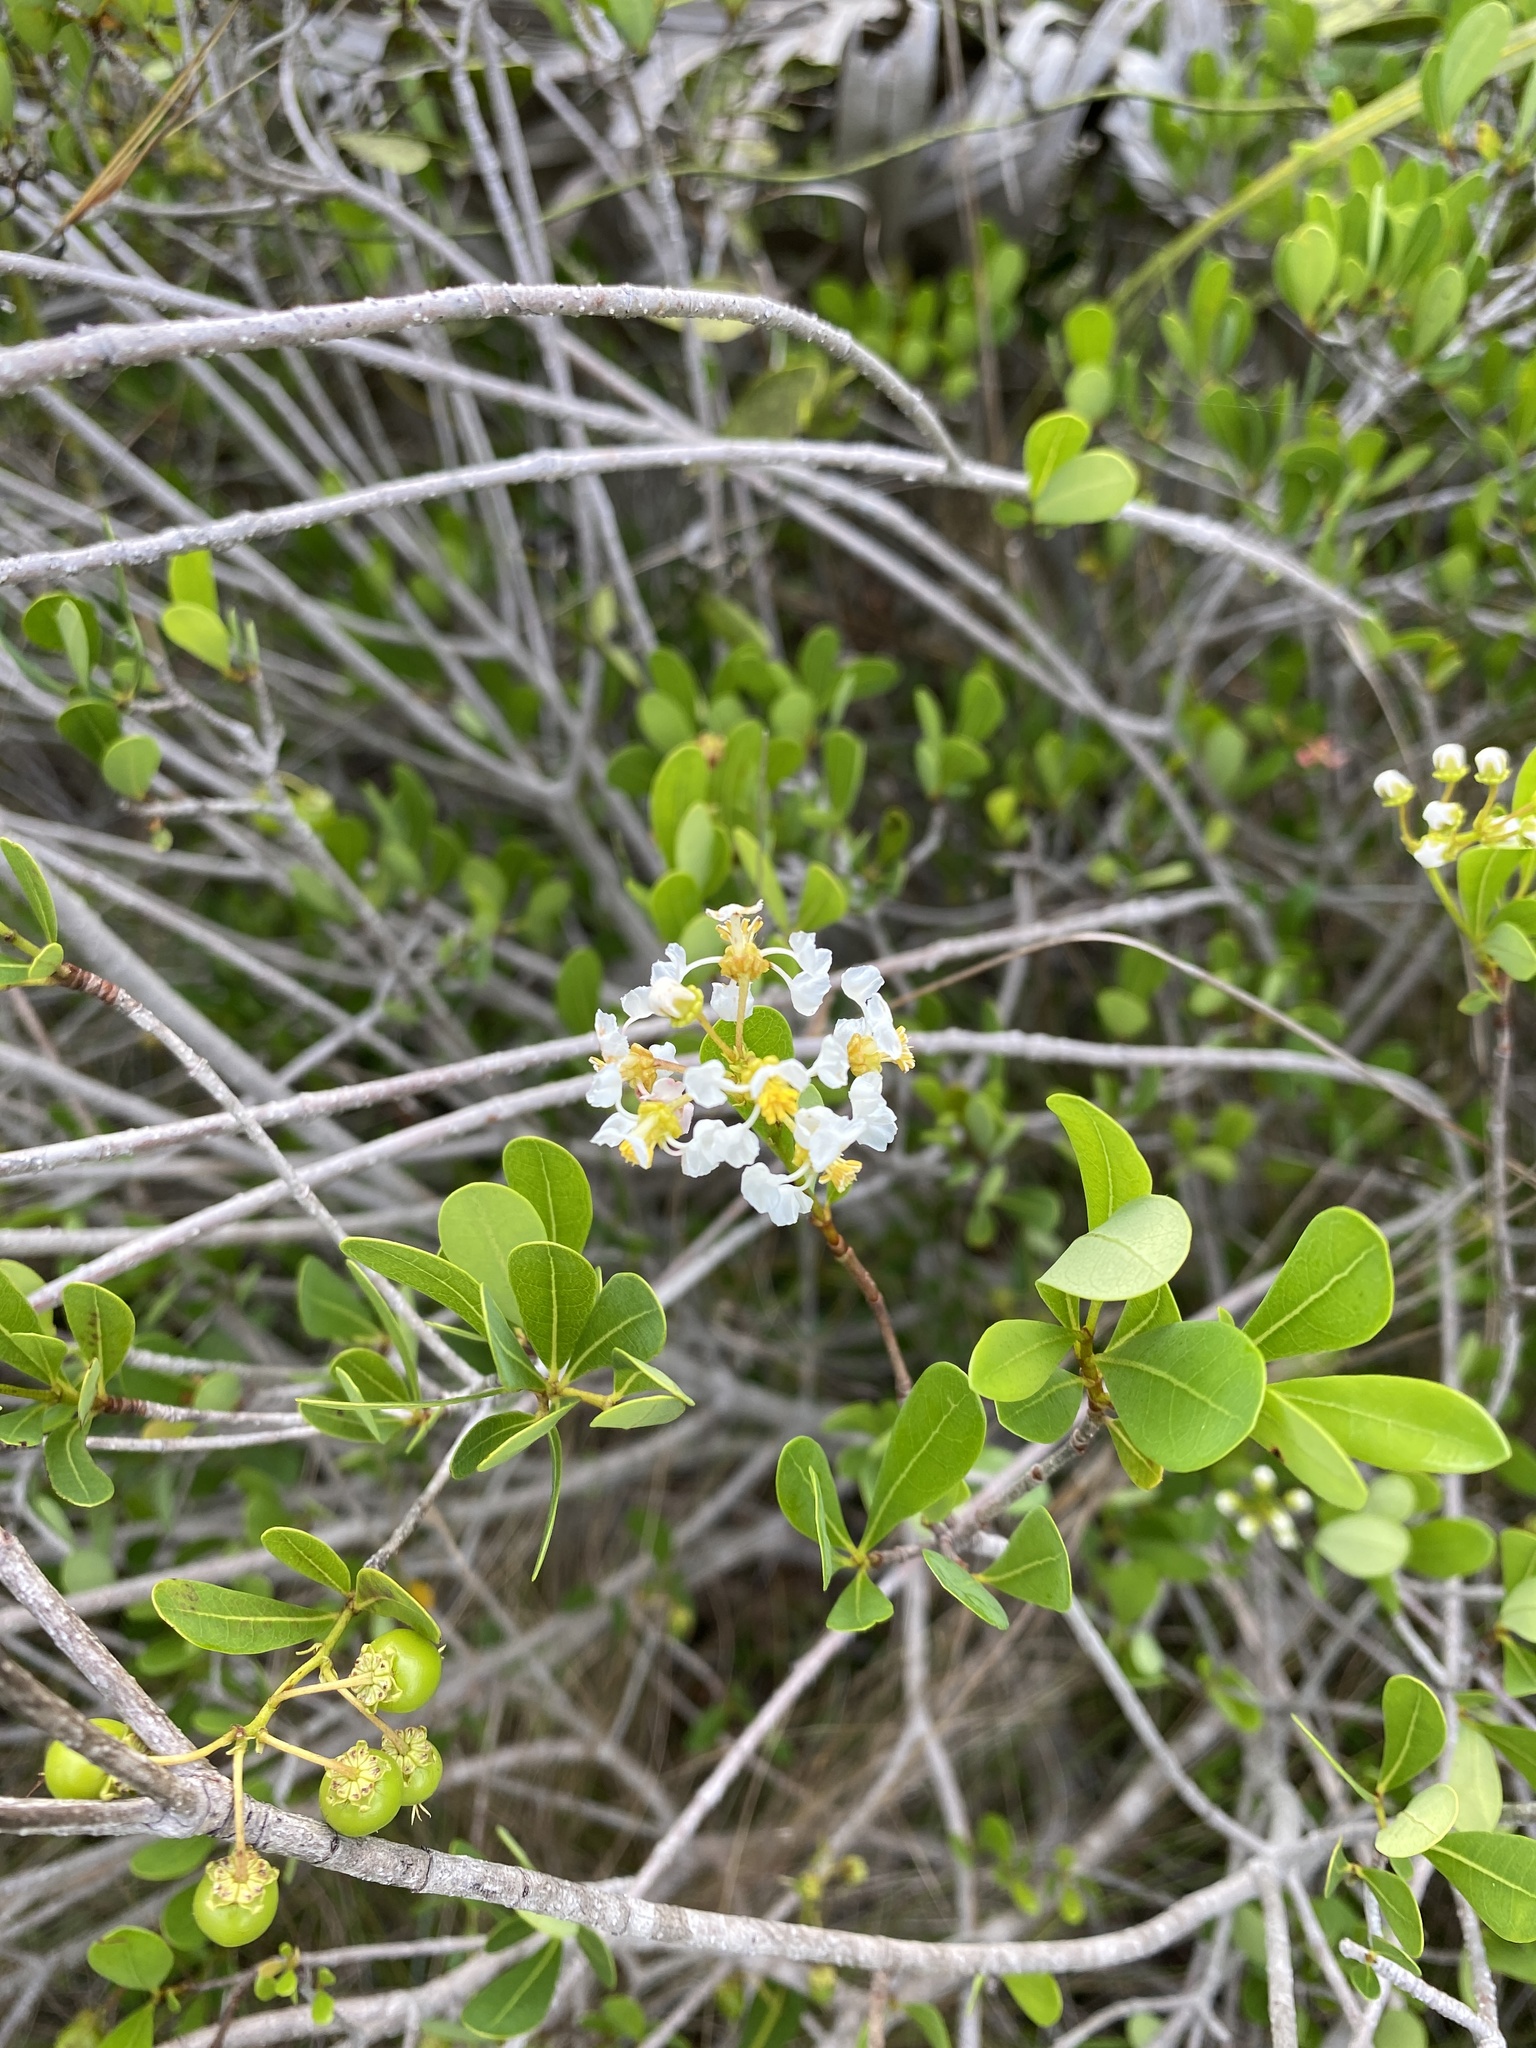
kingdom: Plantae
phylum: Tracheophyta
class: Magnoliopsida
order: Malpighiales
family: Malpighiaceae
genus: Byrsonima
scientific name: Byrsonima lucida
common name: Clam-cherry
